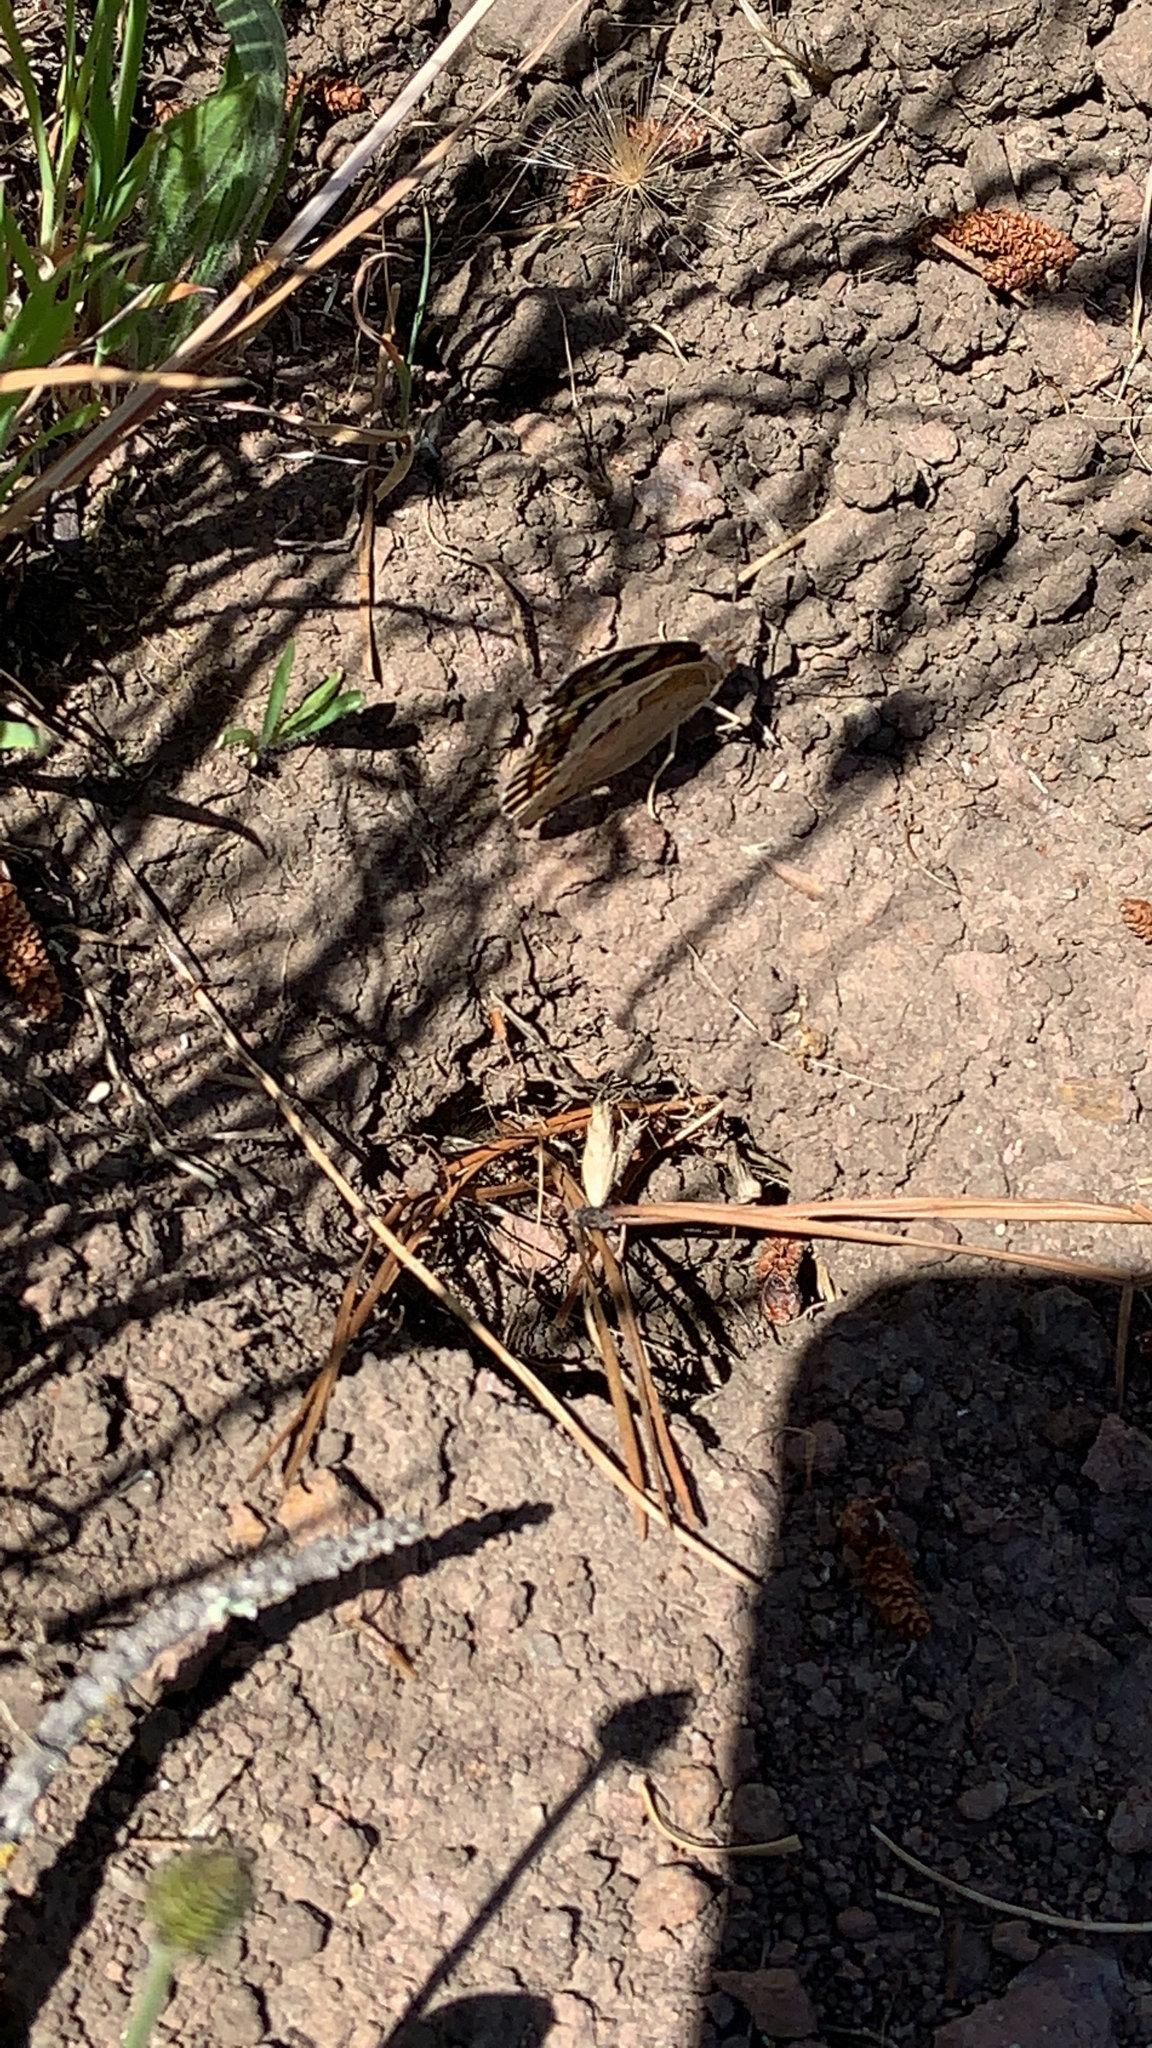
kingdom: Animalia
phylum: Arthropoda
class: Insecta
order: Lepidoptera
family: Nymphalidae
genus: Junonia
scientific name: Junonia grisea
